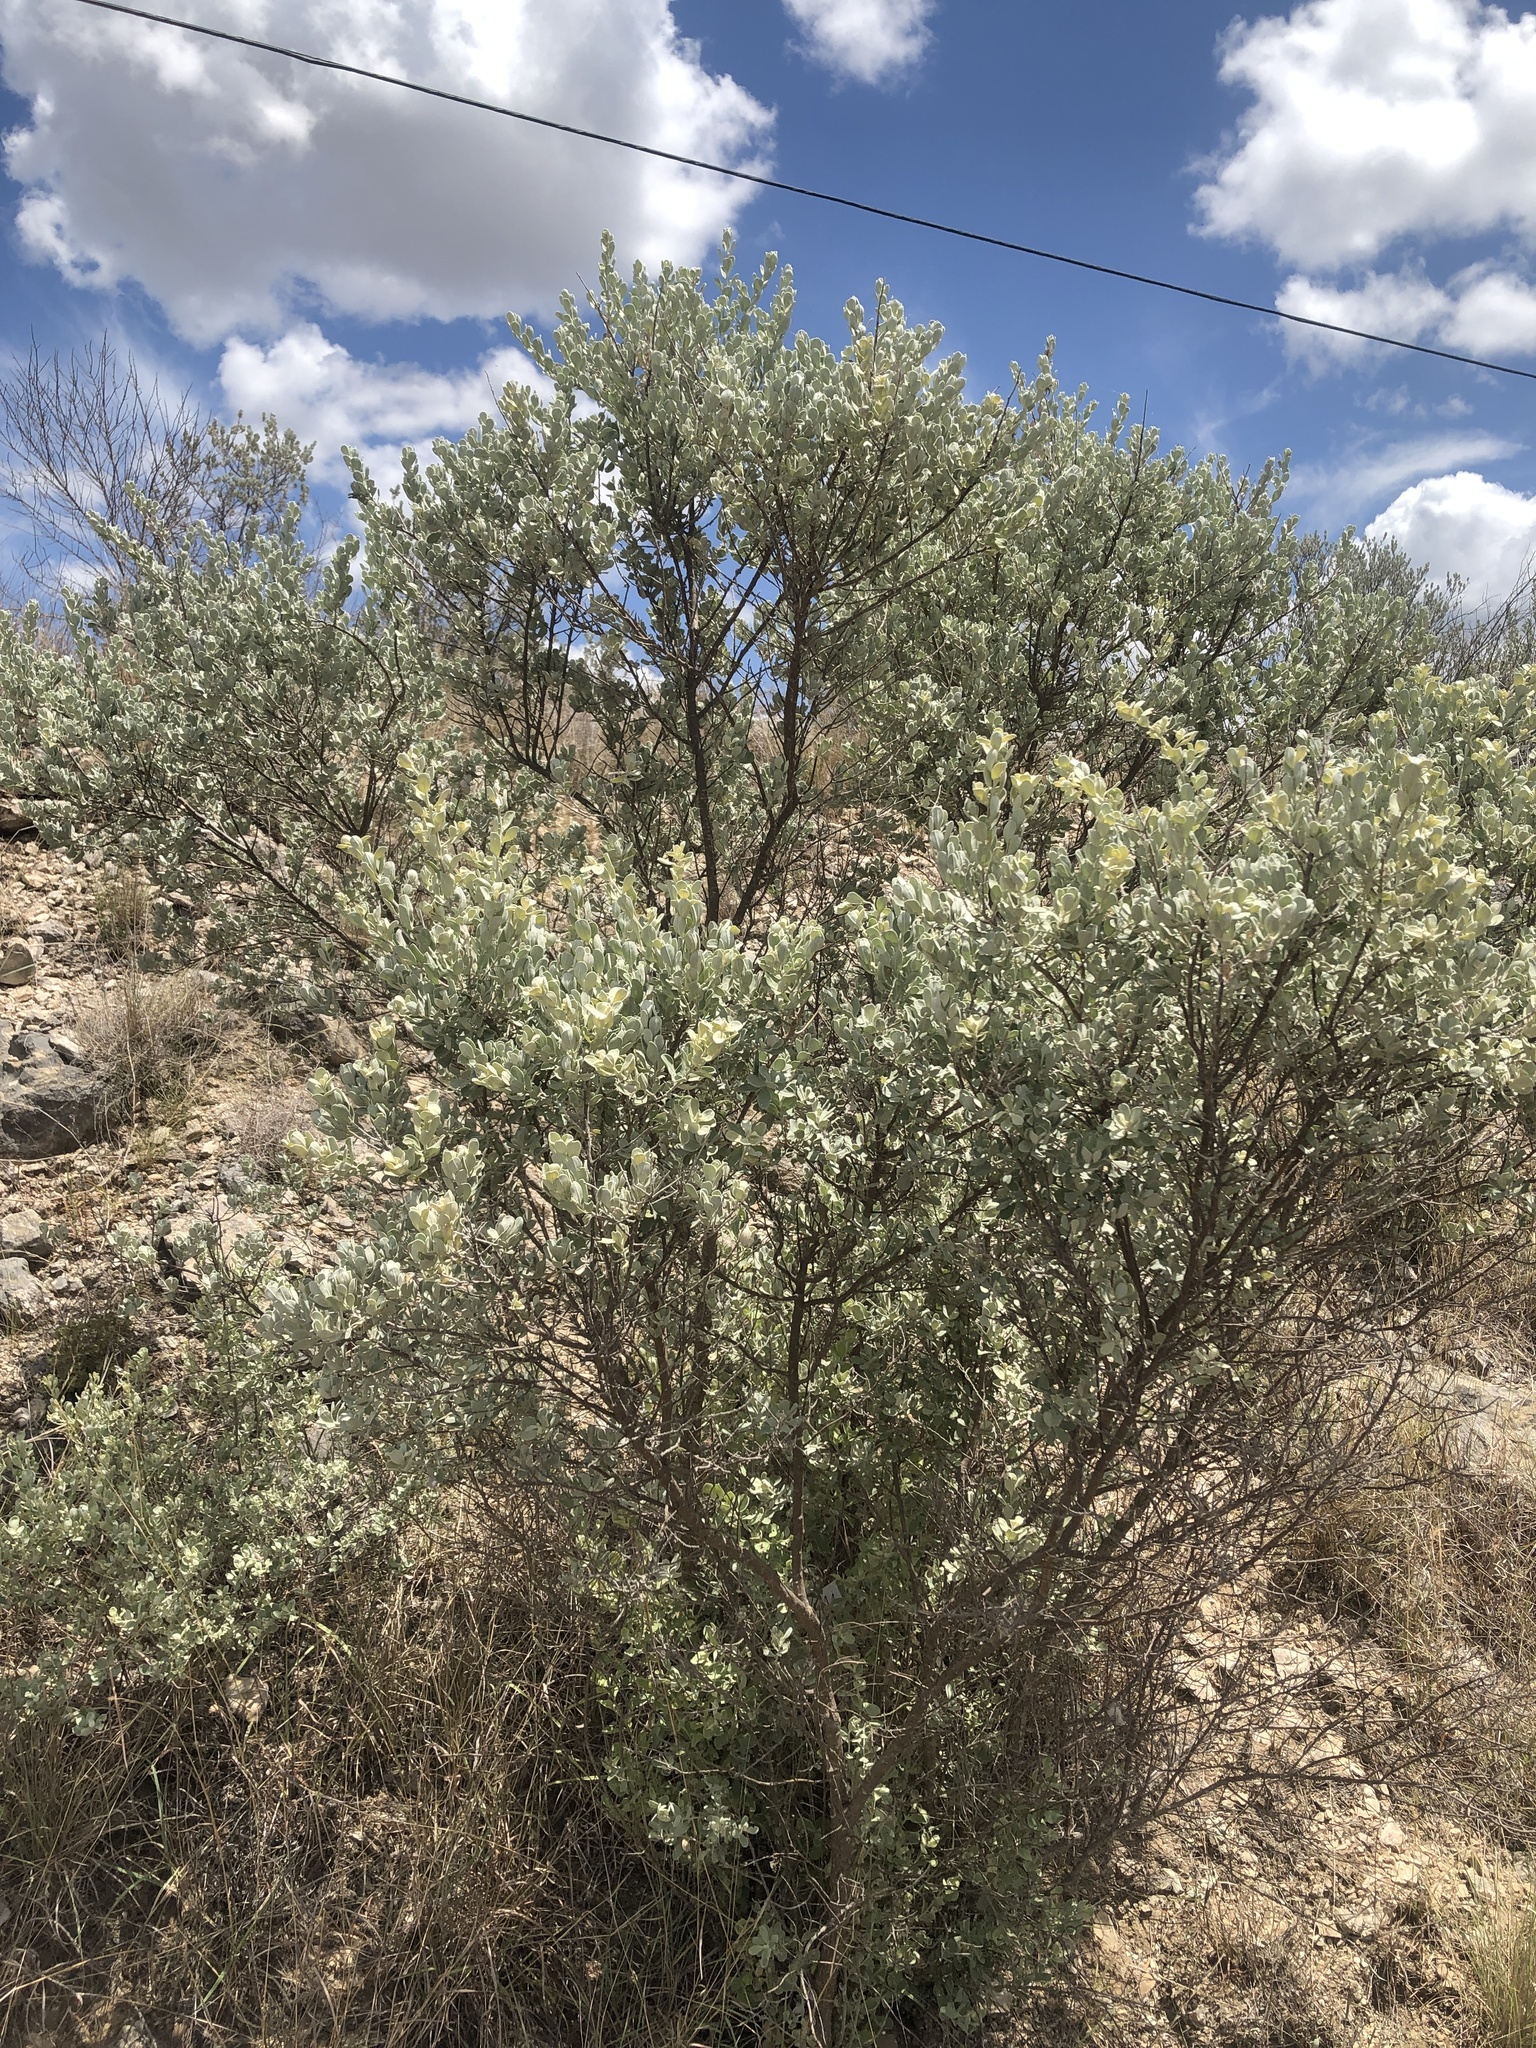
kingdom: Plantae
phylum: Tracheophyta
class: Magnoliopsida
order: Lamiales
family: Scrophulariaceae
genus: Leucophyllum
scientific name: Leucophyllum frutescens
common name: Texas silverleaf
